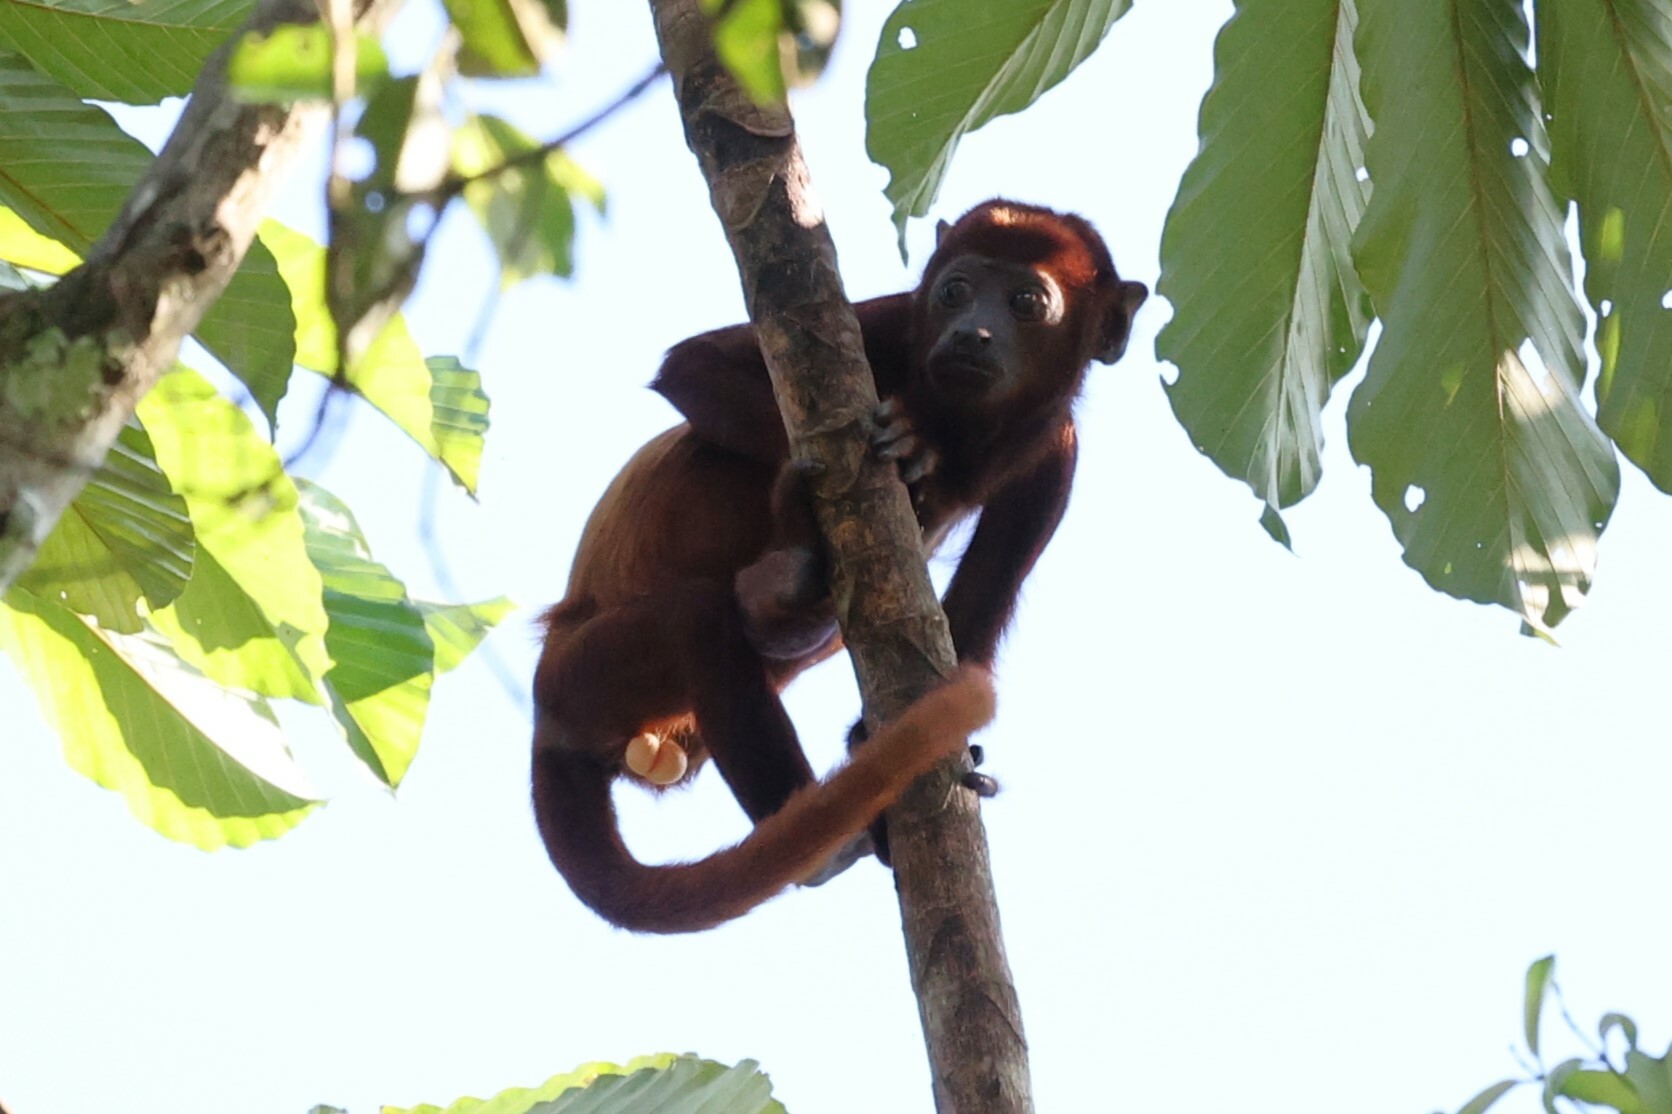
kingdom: Animalia
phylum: Chordata
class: Mammalia
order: Primates
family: Atelidae
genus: Alouatta
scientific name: Alouatta seniculus
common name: Venezuelan red howler
